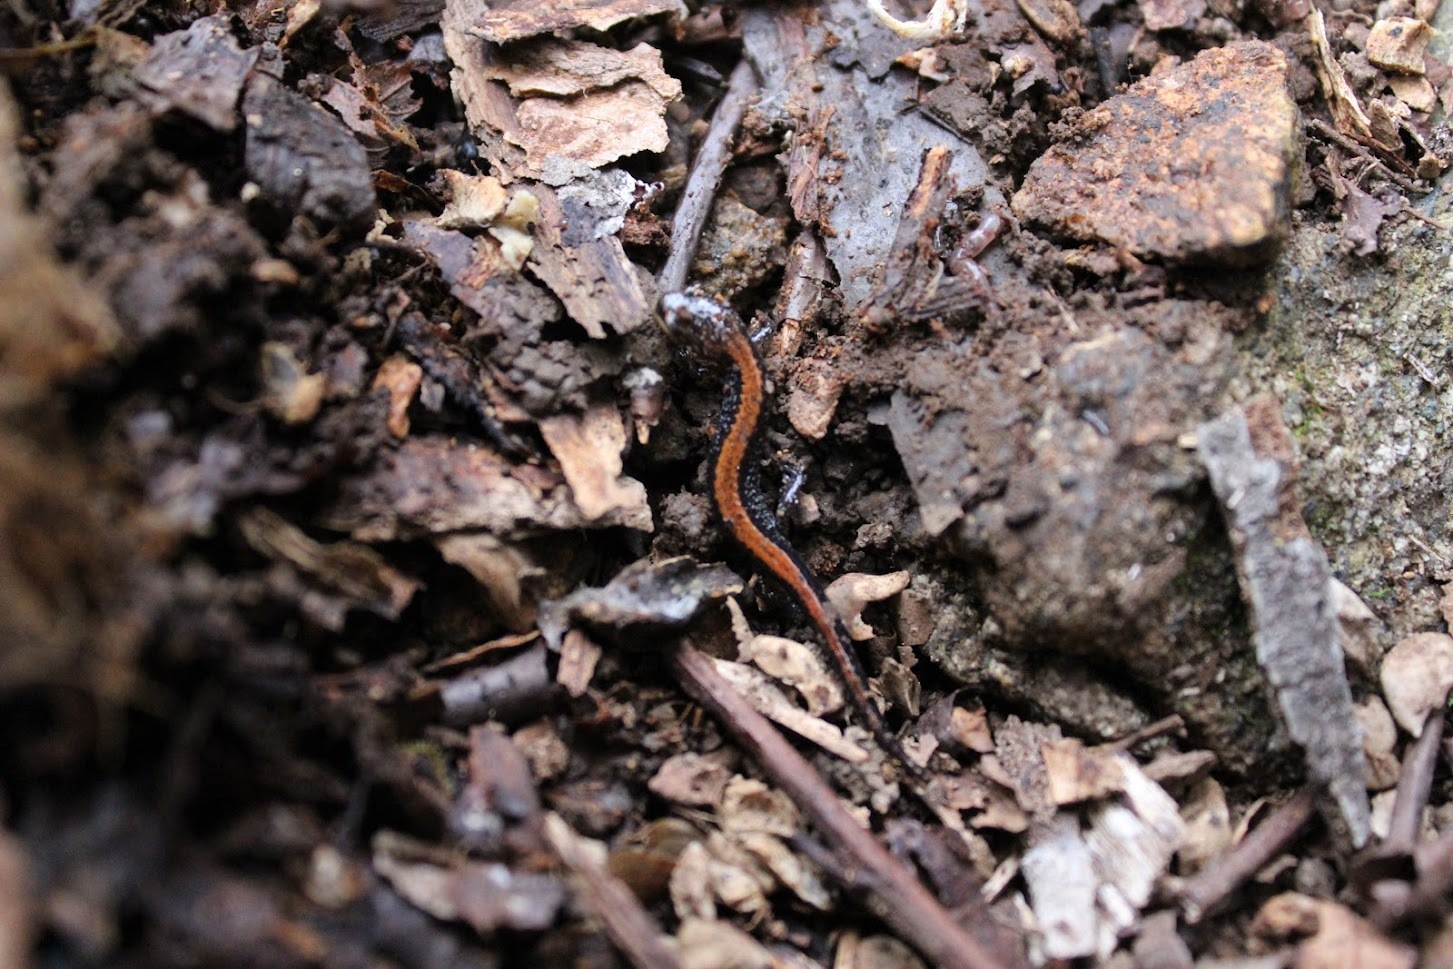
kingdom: Animalia
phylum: Chordata
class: Amphibia
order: Caudata
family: Plethodontidae
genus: Plethodon
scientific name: Plethodon cinereus
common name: Redback salamander
